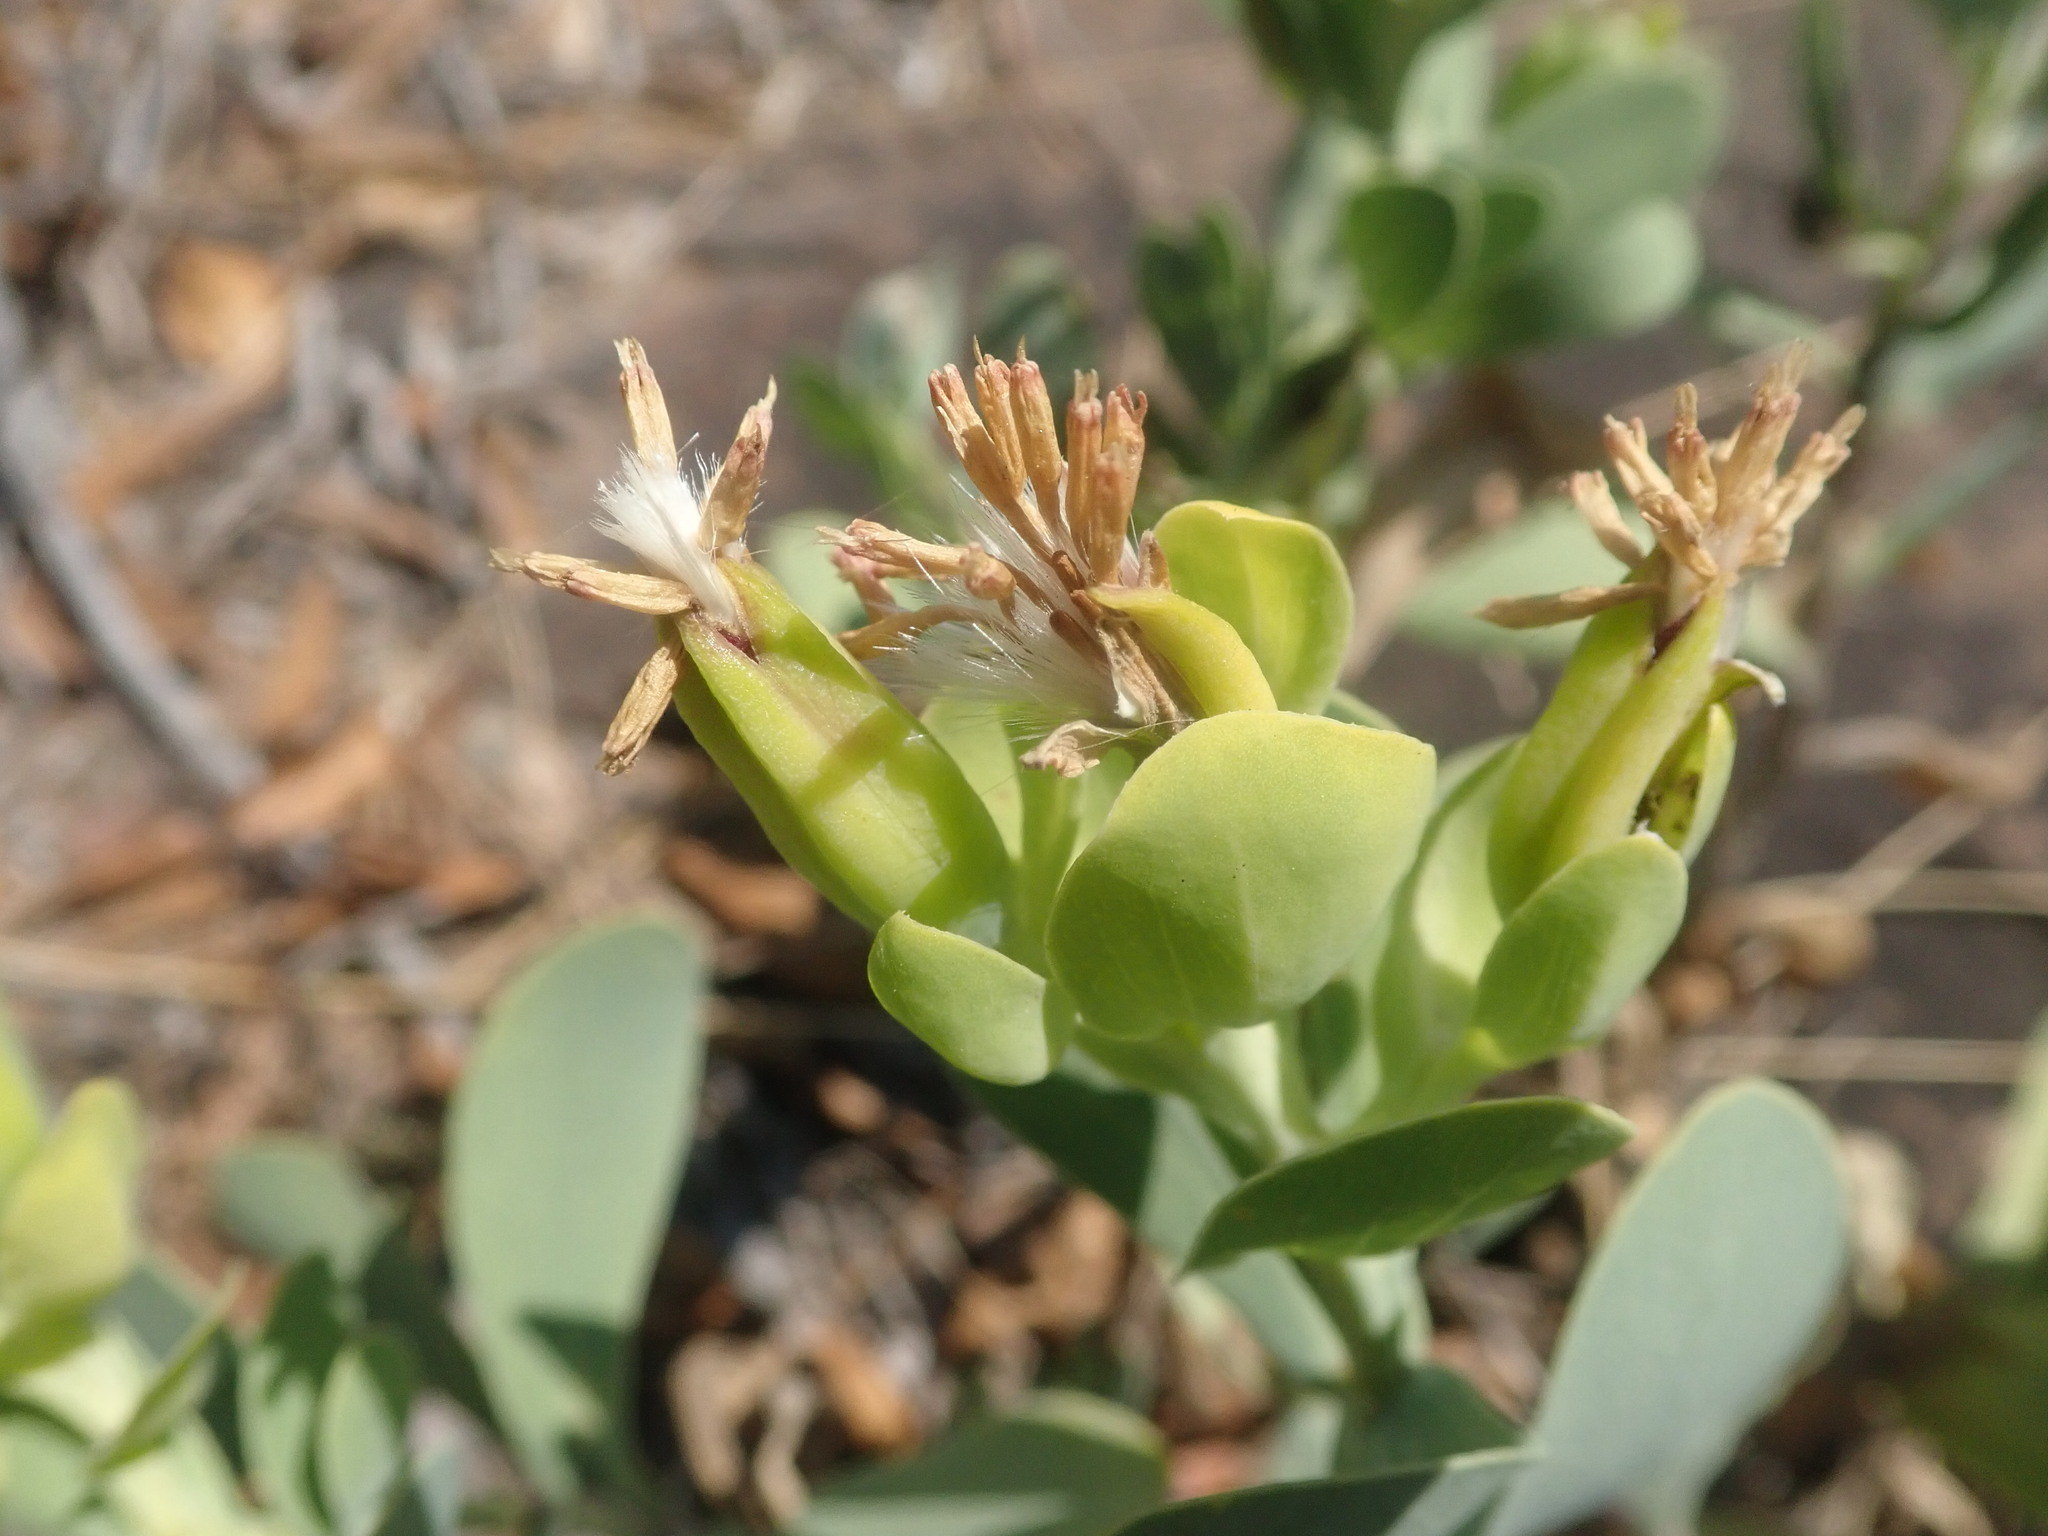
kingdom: Plantae
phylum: Tracheophyta
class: Magnoliopsida
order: Asterales
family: Asteraceae
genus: Lopholaena
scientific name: Lopholaena coriifolia
